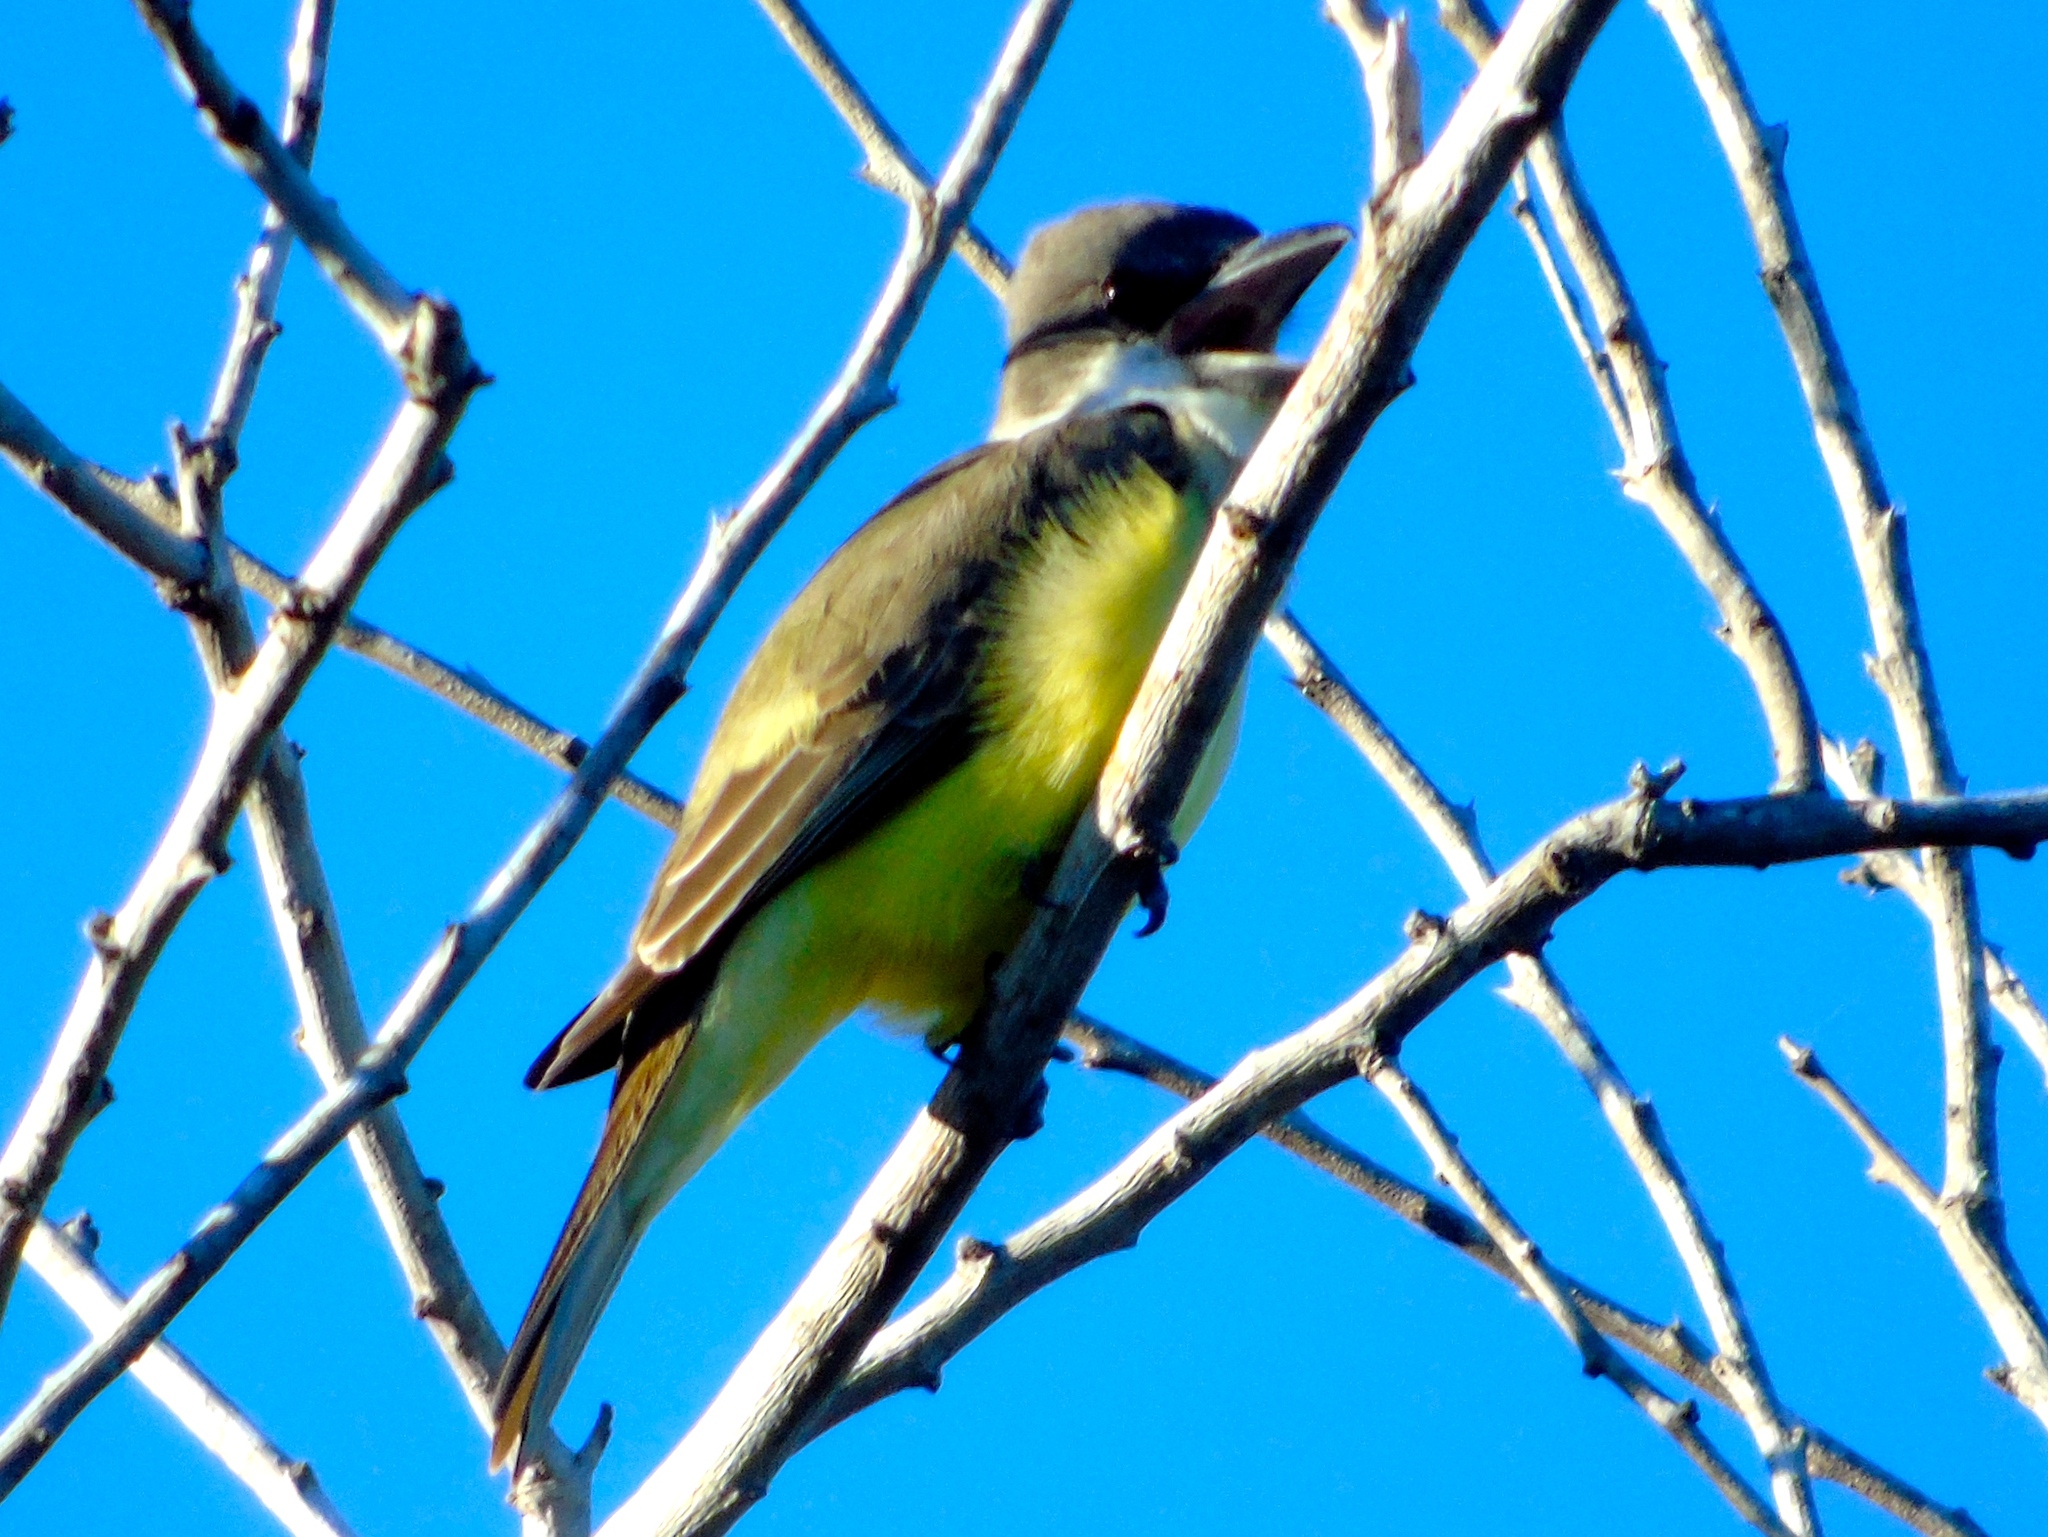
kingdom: Animalia
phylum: Chordata
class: Aves
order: Passeriformes
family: Tyrannidae
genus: Tyrannus
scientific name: Tyrannus crassirostris
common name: Thick-billed kingbird
